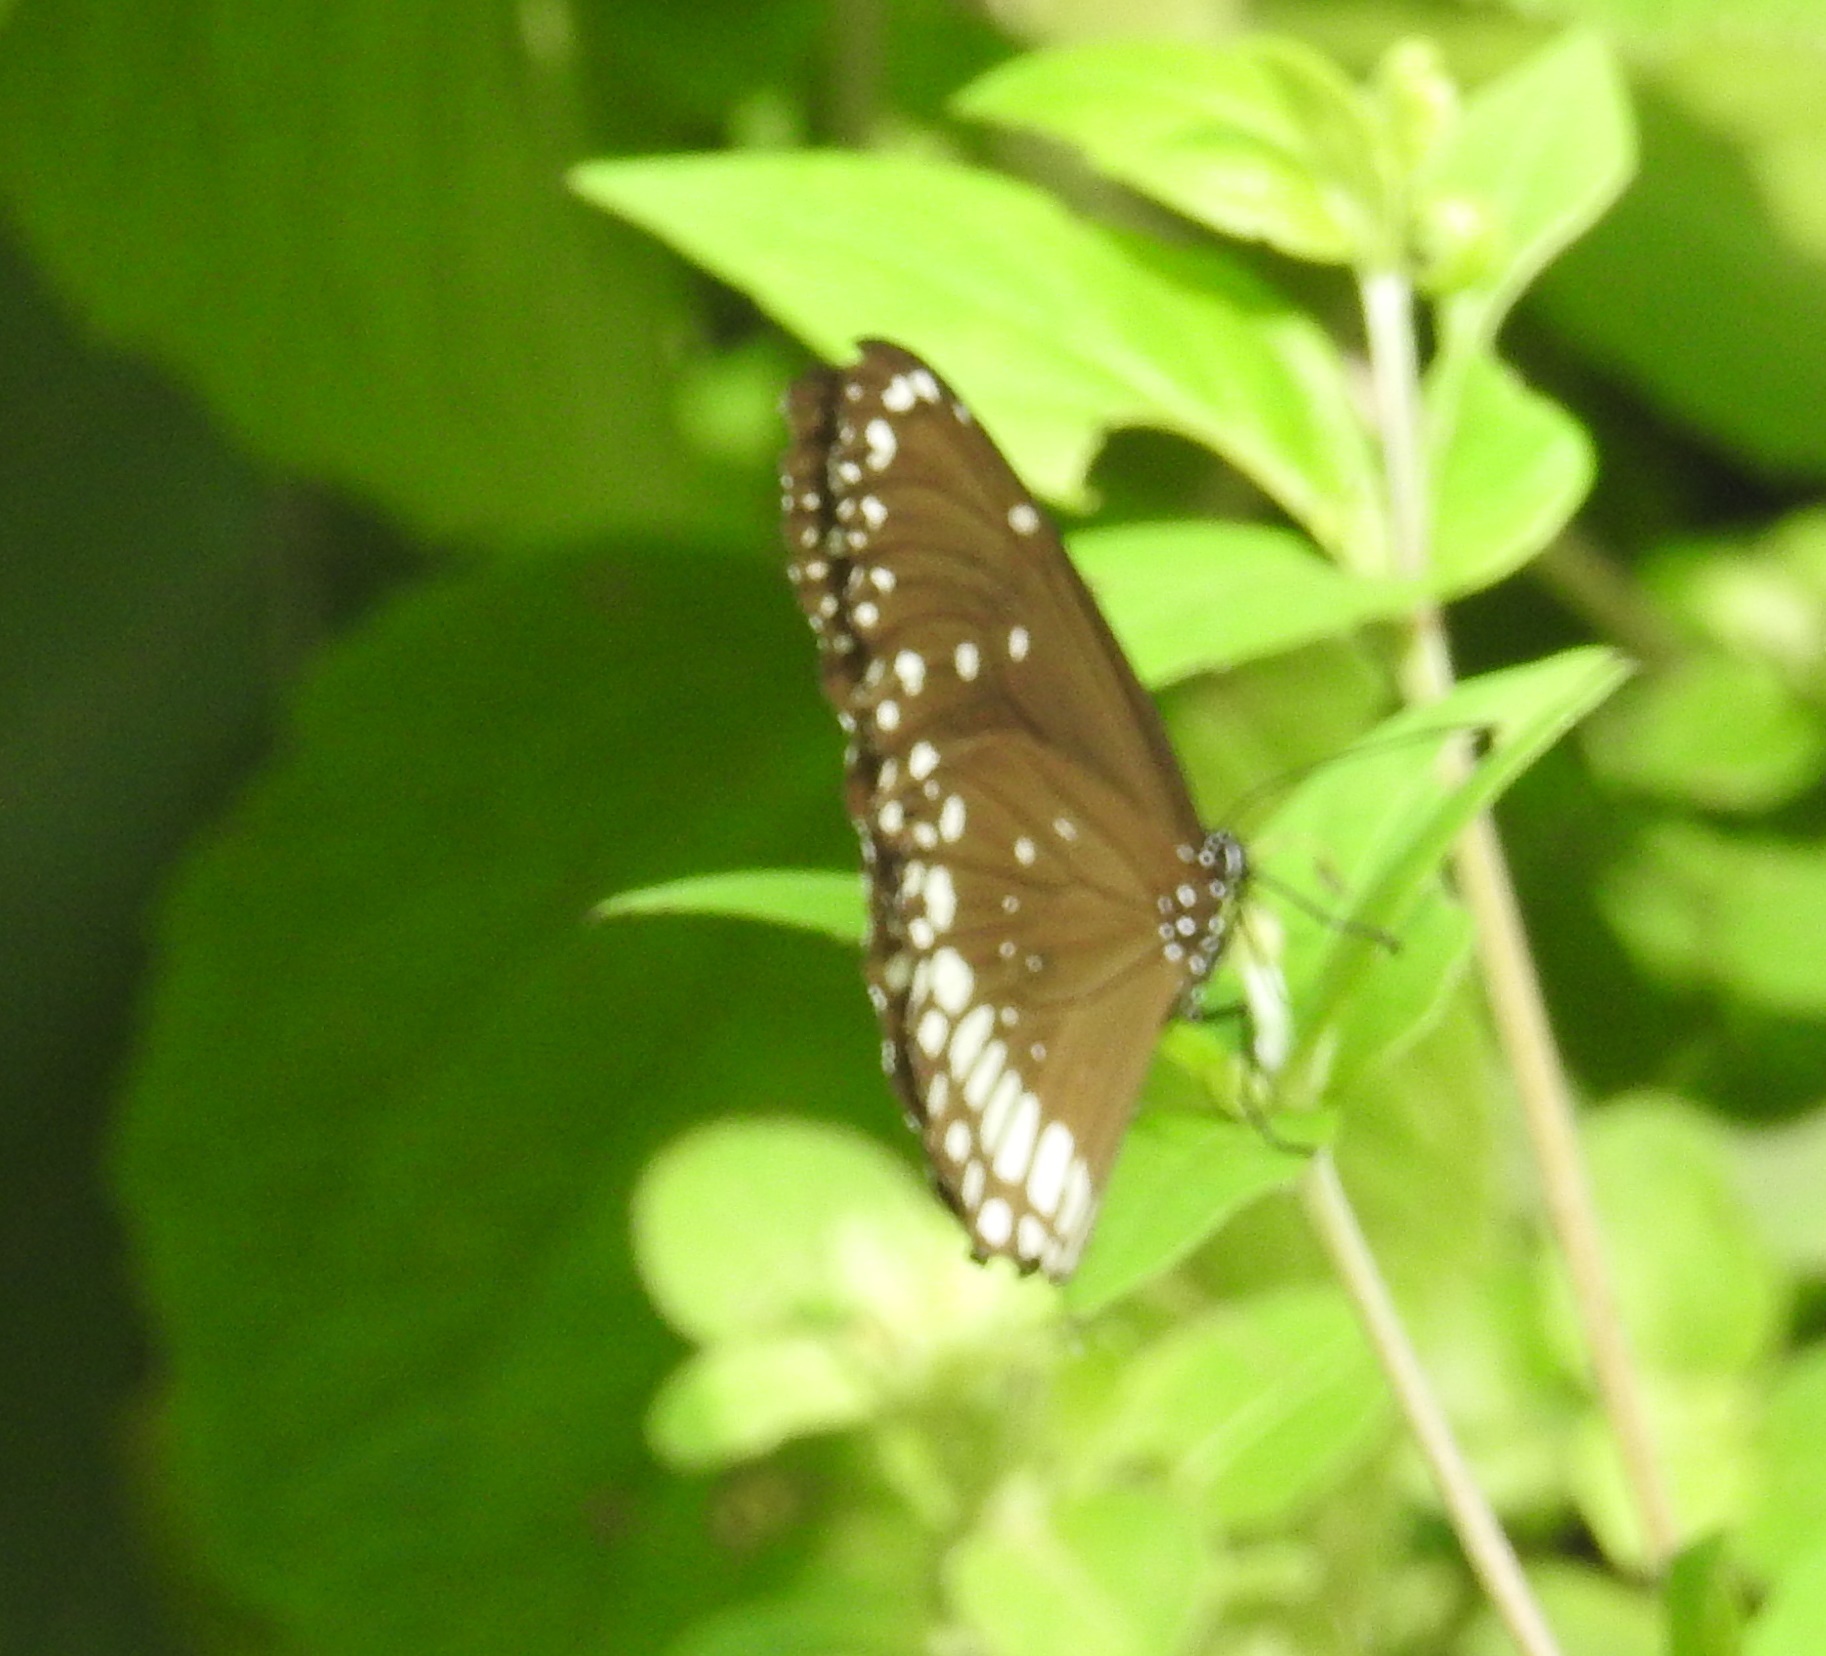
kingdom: Animalia
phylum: Arthropoda
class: Insecta
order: Lepidoptera
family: Nymphalidae
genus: Euploea
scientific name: Euploea core
